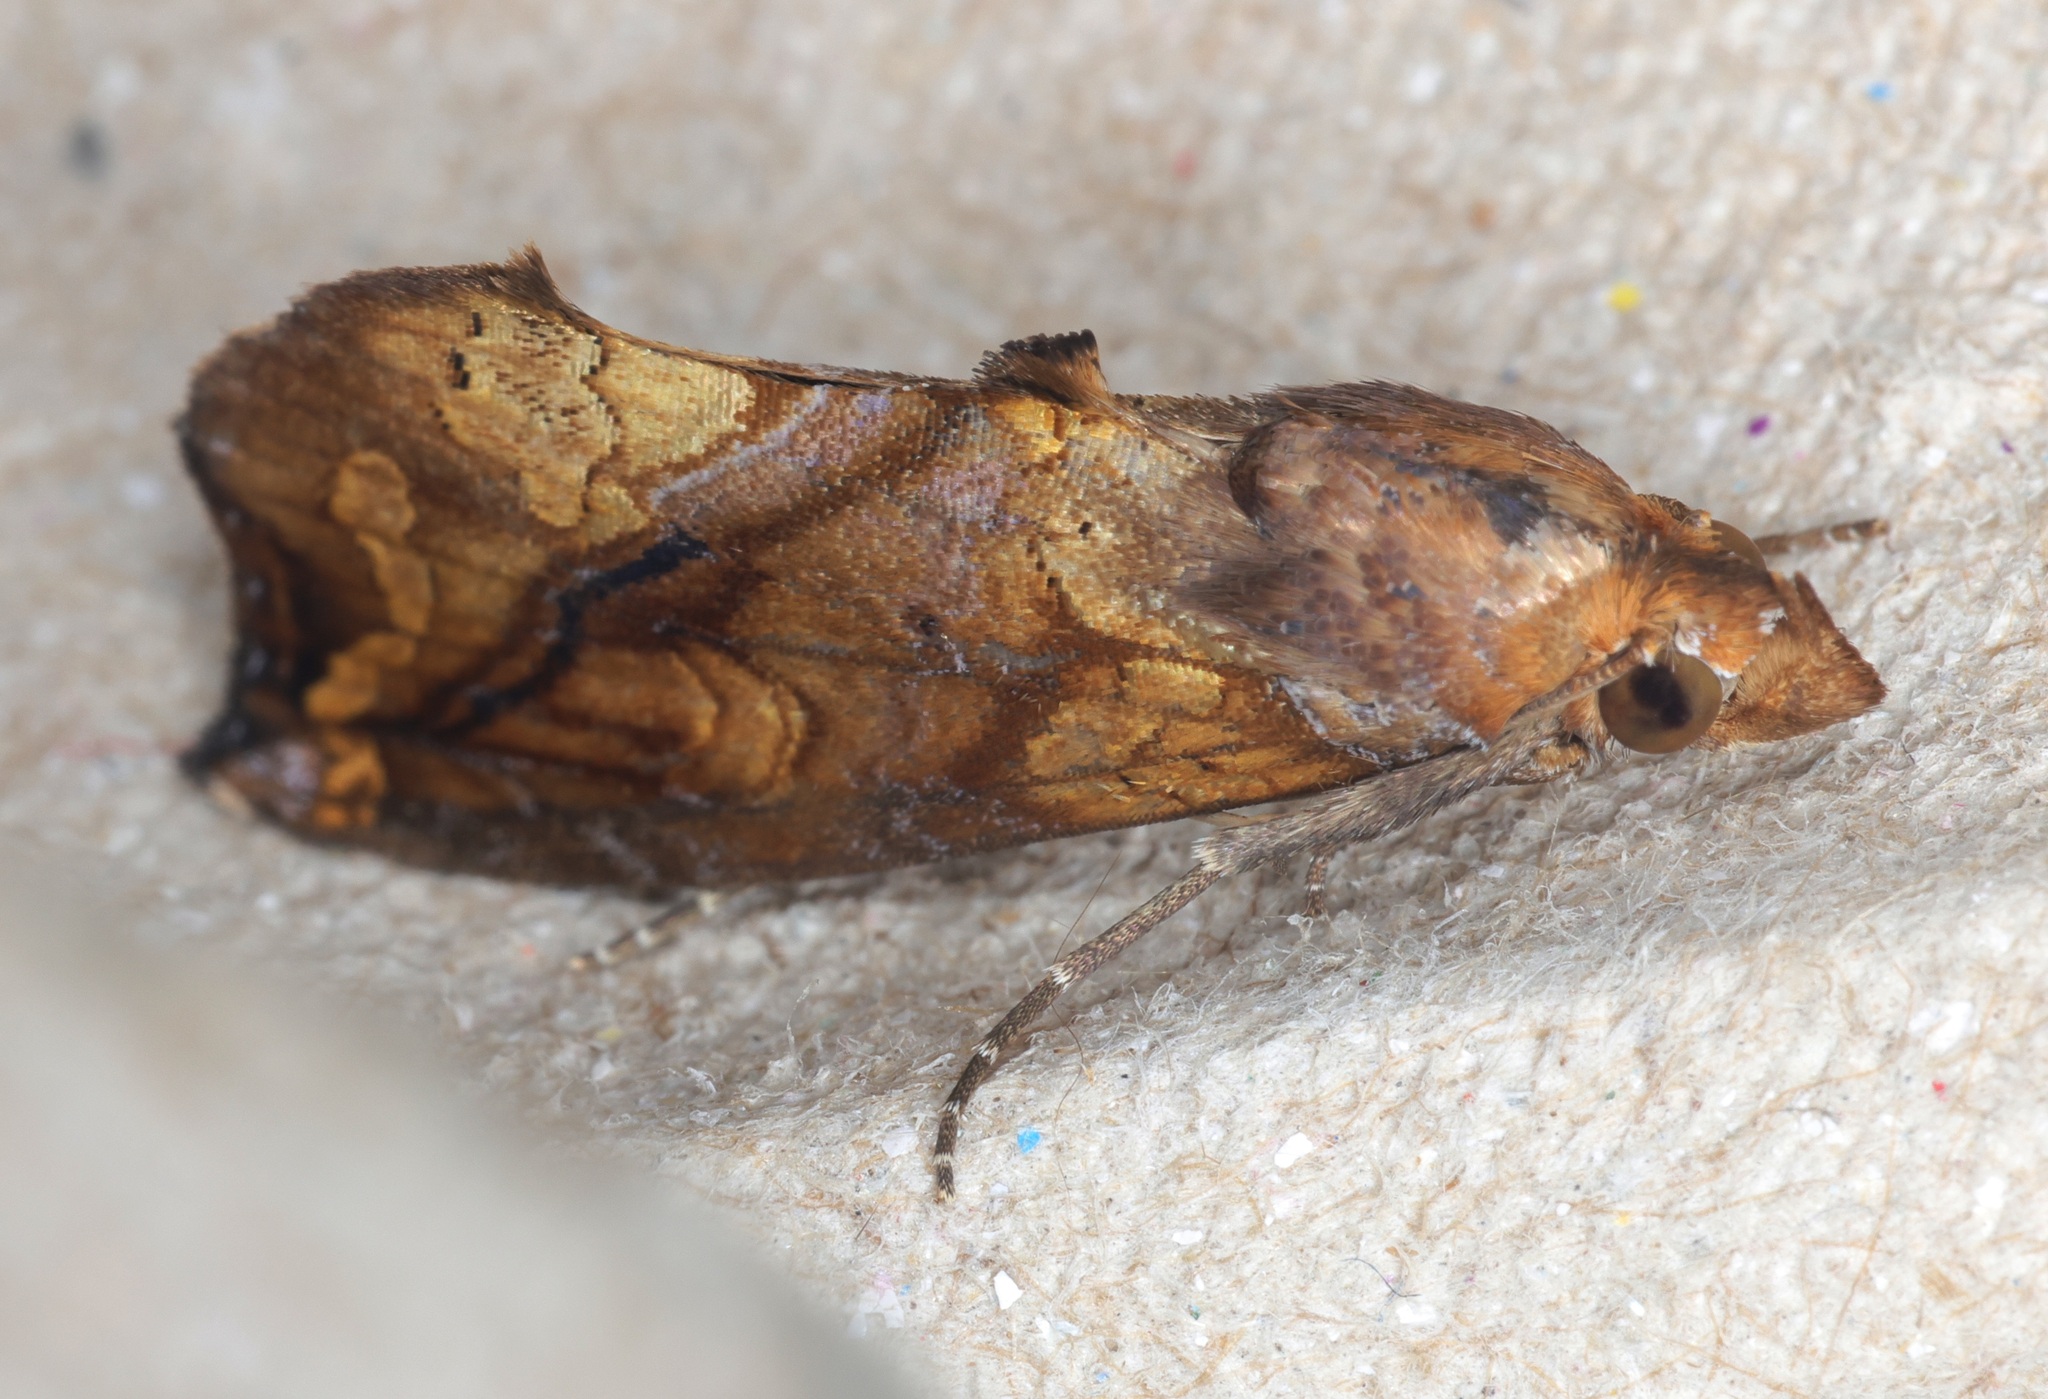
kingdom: Animalia
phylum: Arthropoda
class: Insecta
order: Lepidoptera
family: Erebidae
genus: Plusiodonta
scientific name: Plusiodonta coelonota
